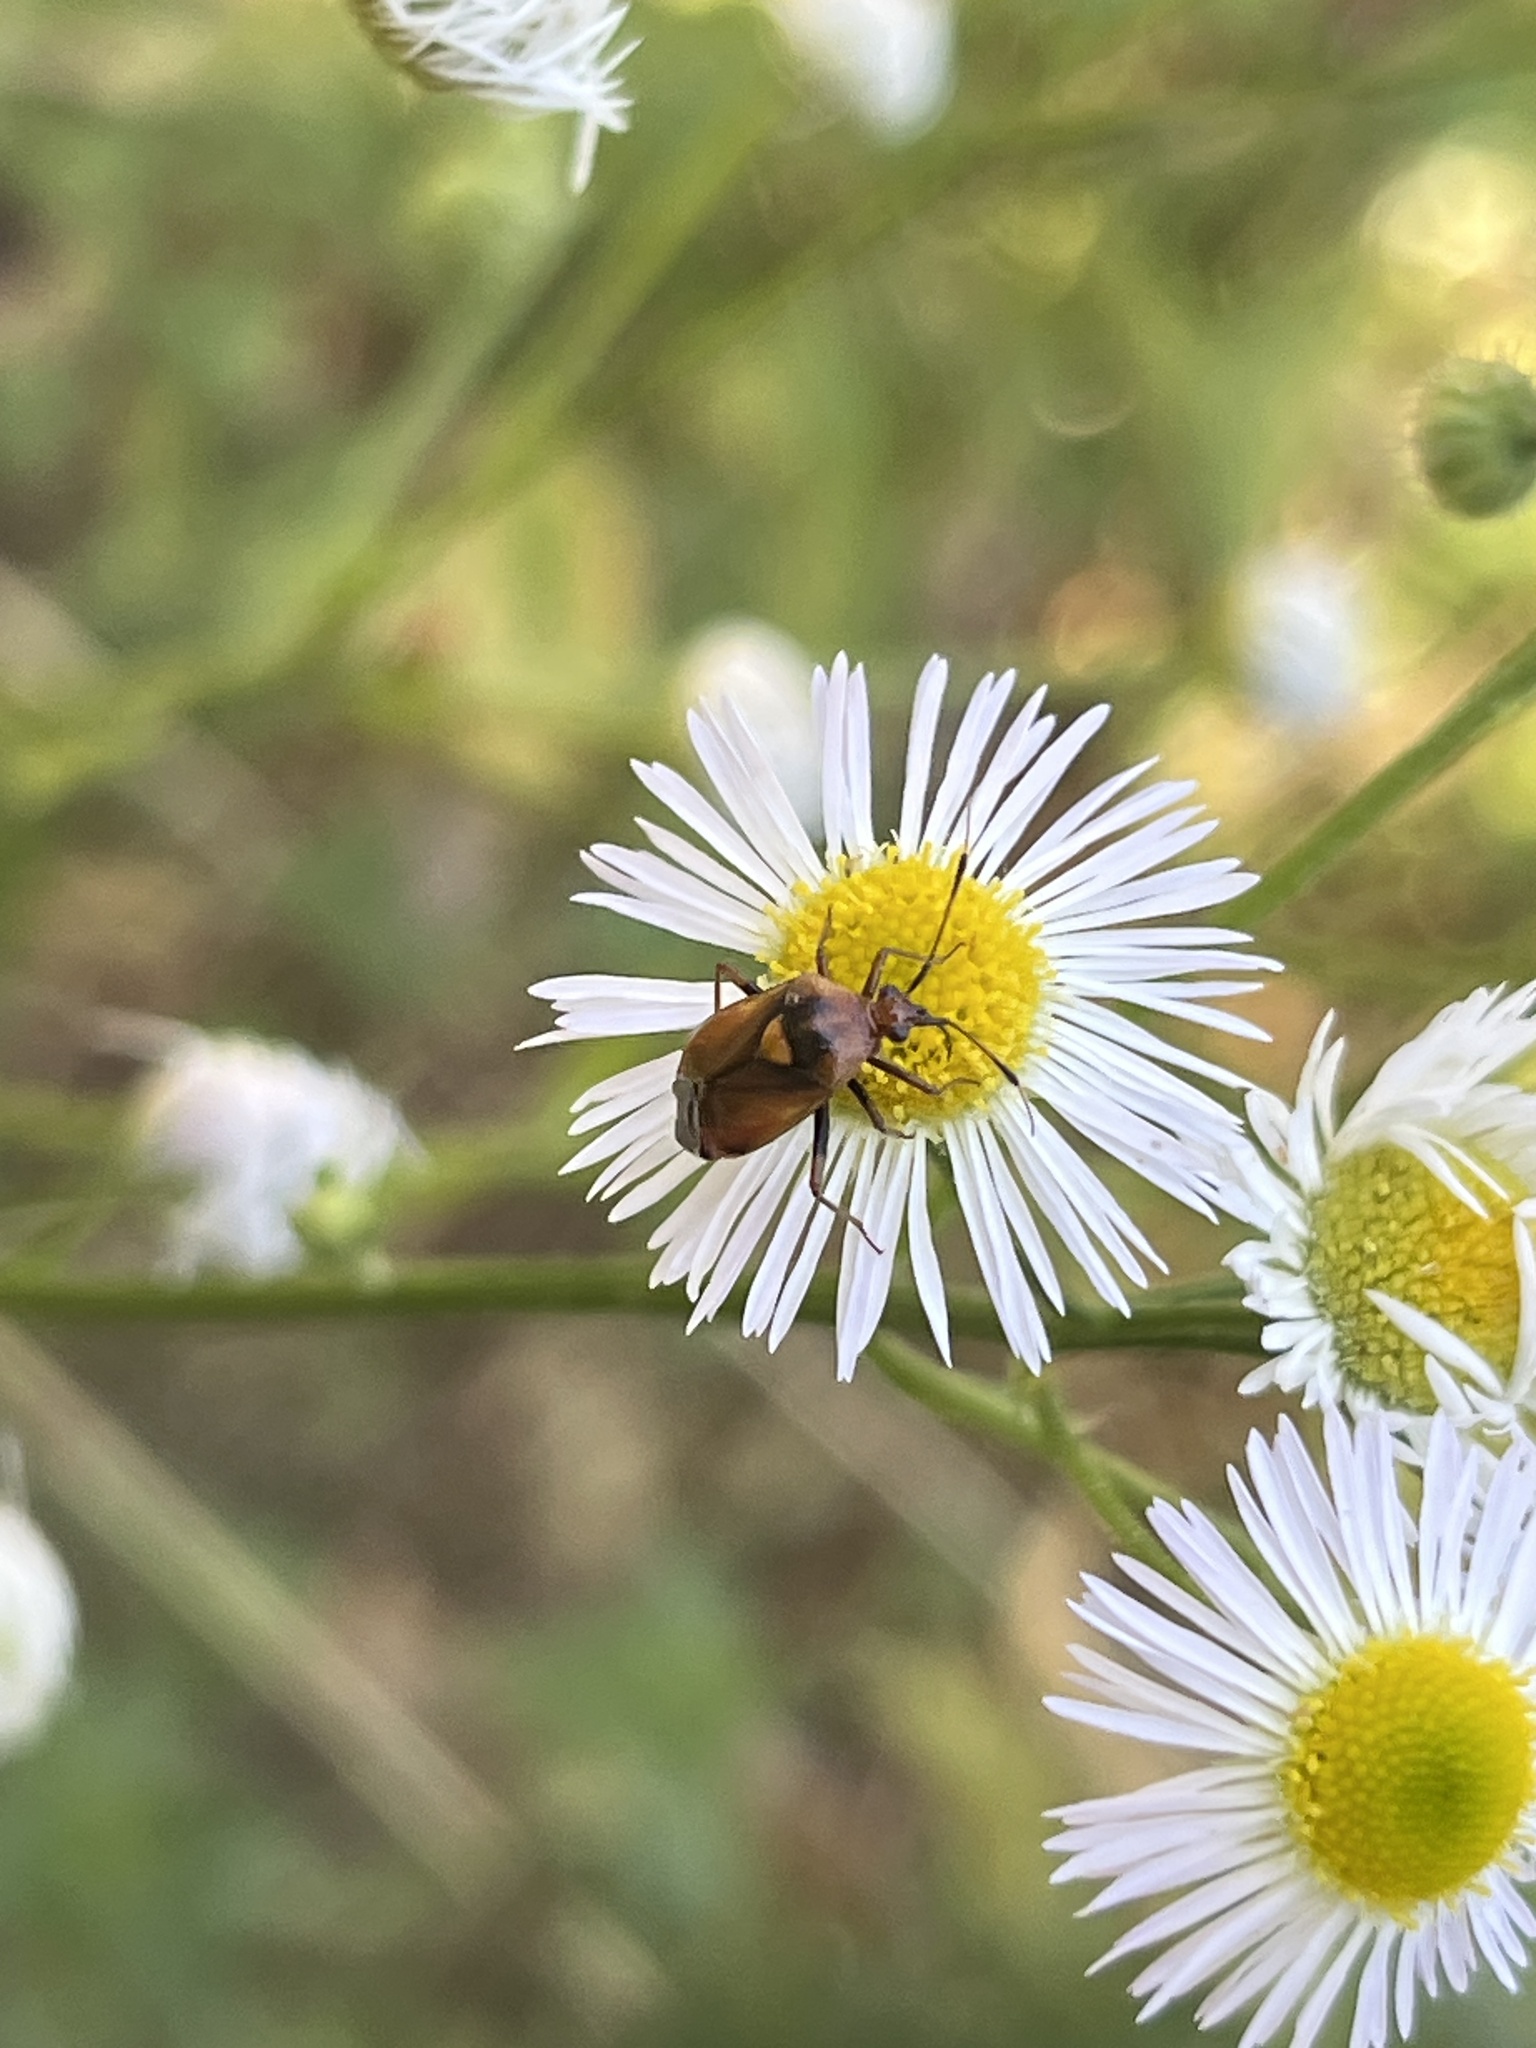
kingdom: Animalia
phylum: Arthropoda
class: Insecta
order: Hemiptera
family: Miridae
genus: Deraeocoris
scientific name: Deraeocoris ruber
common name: Plant bug
